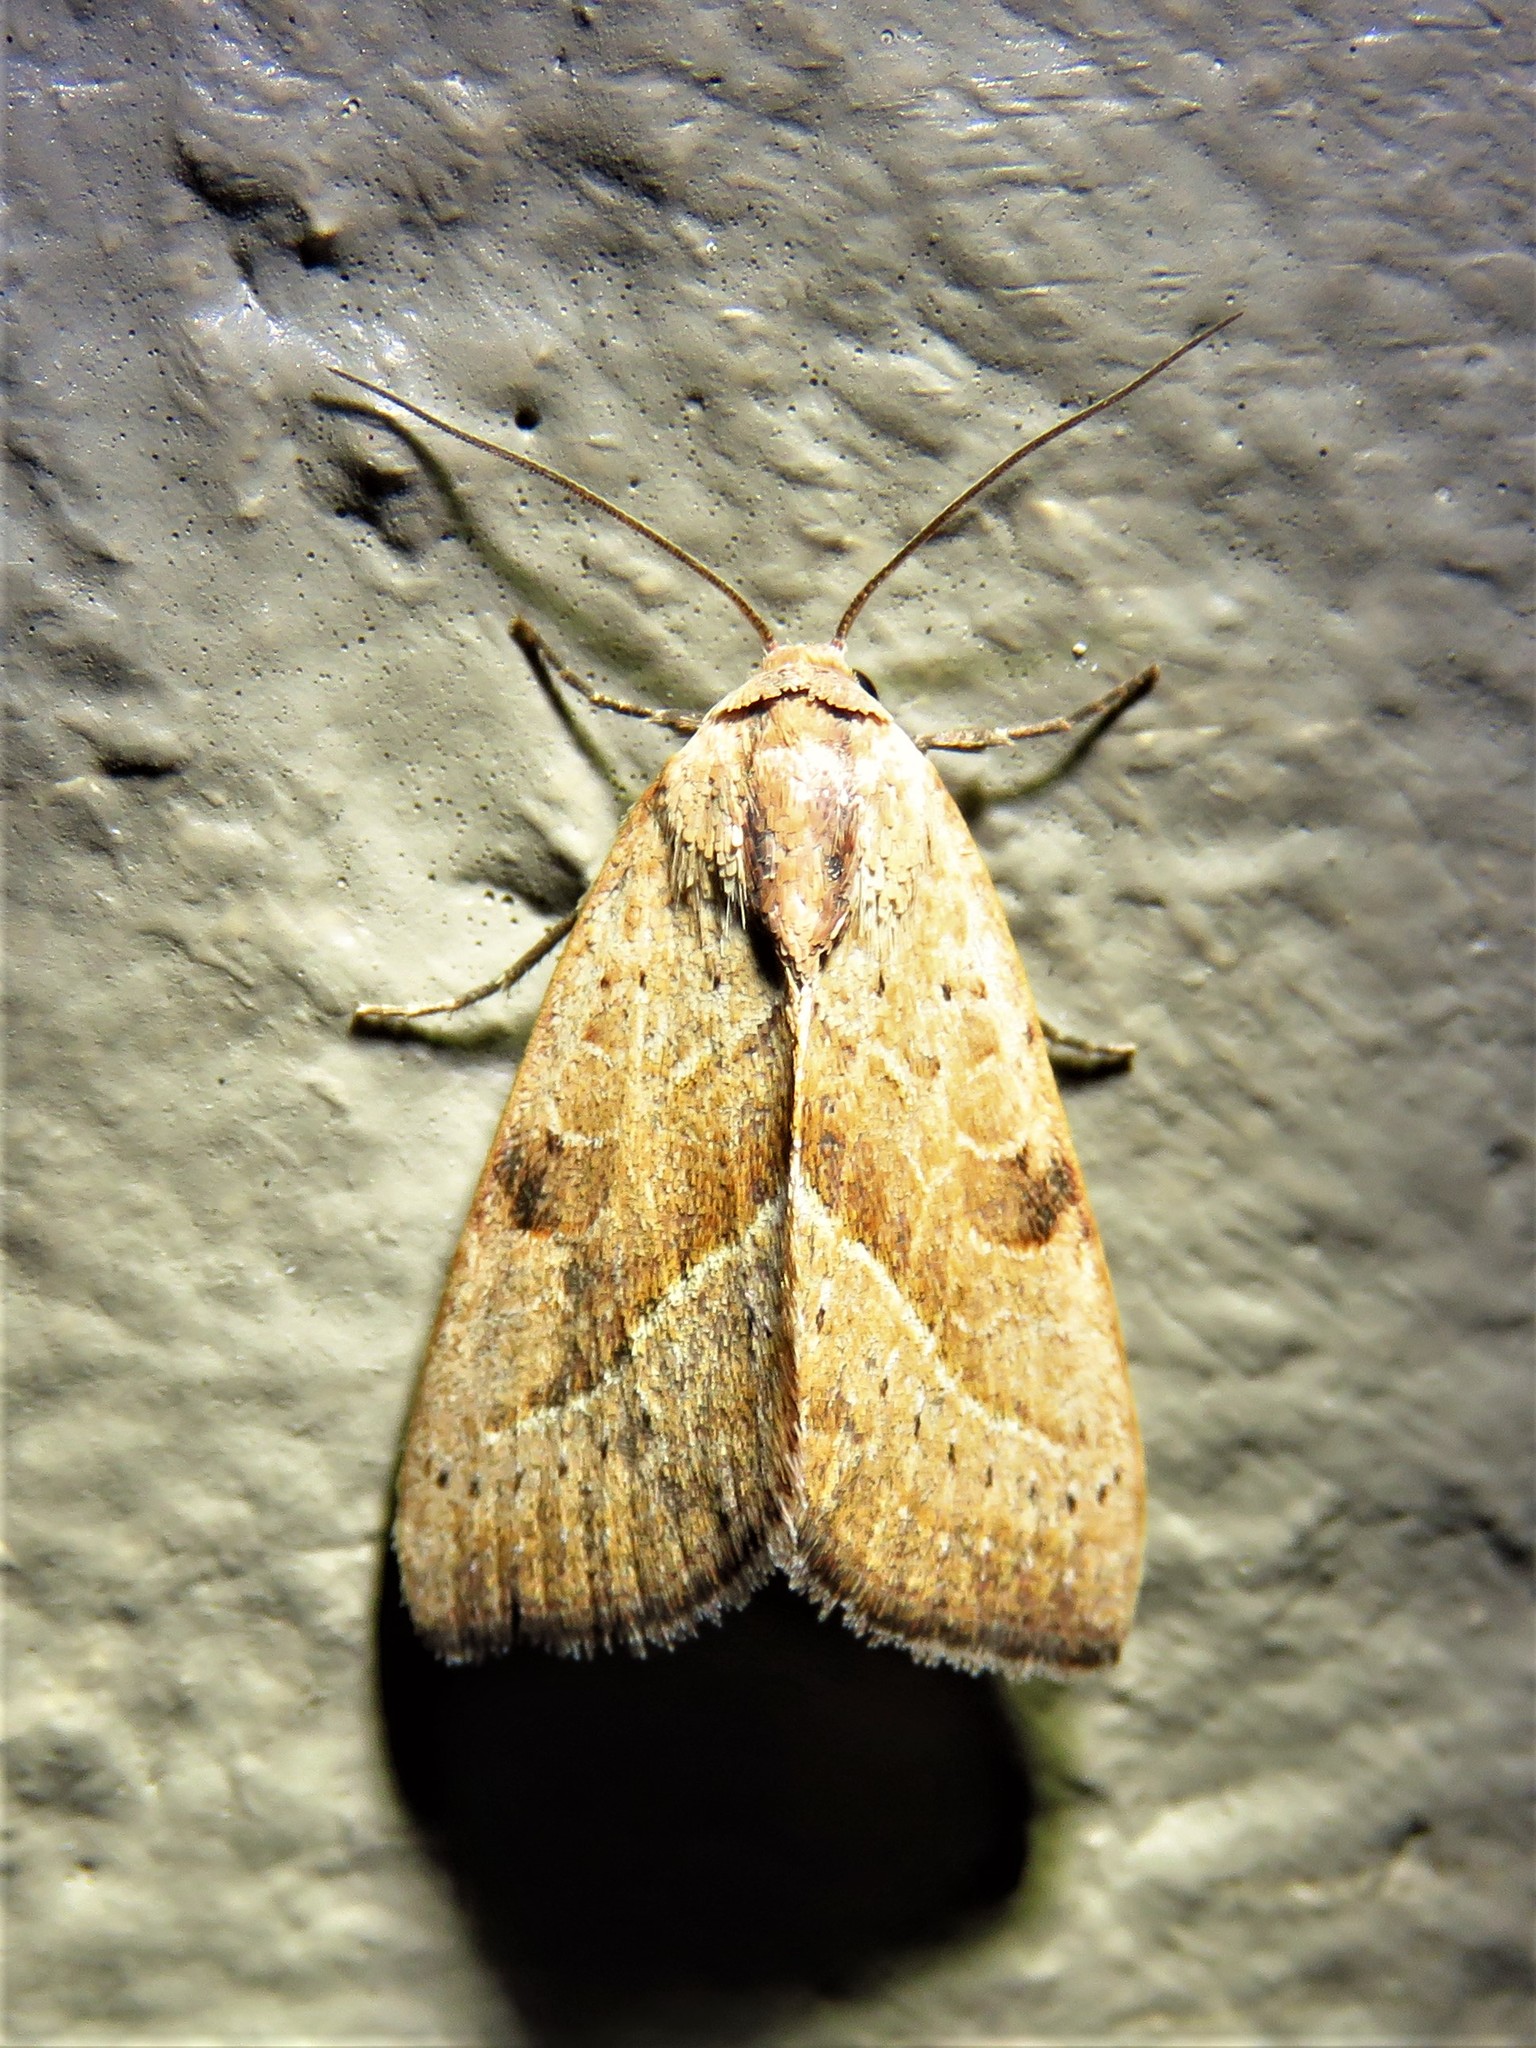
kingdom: Animalia
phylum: Arthropoda
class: Insecta
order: Lepidoptera
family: Noctuidae
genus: Galgula
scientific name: Galgula partita
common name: Wedgeling
